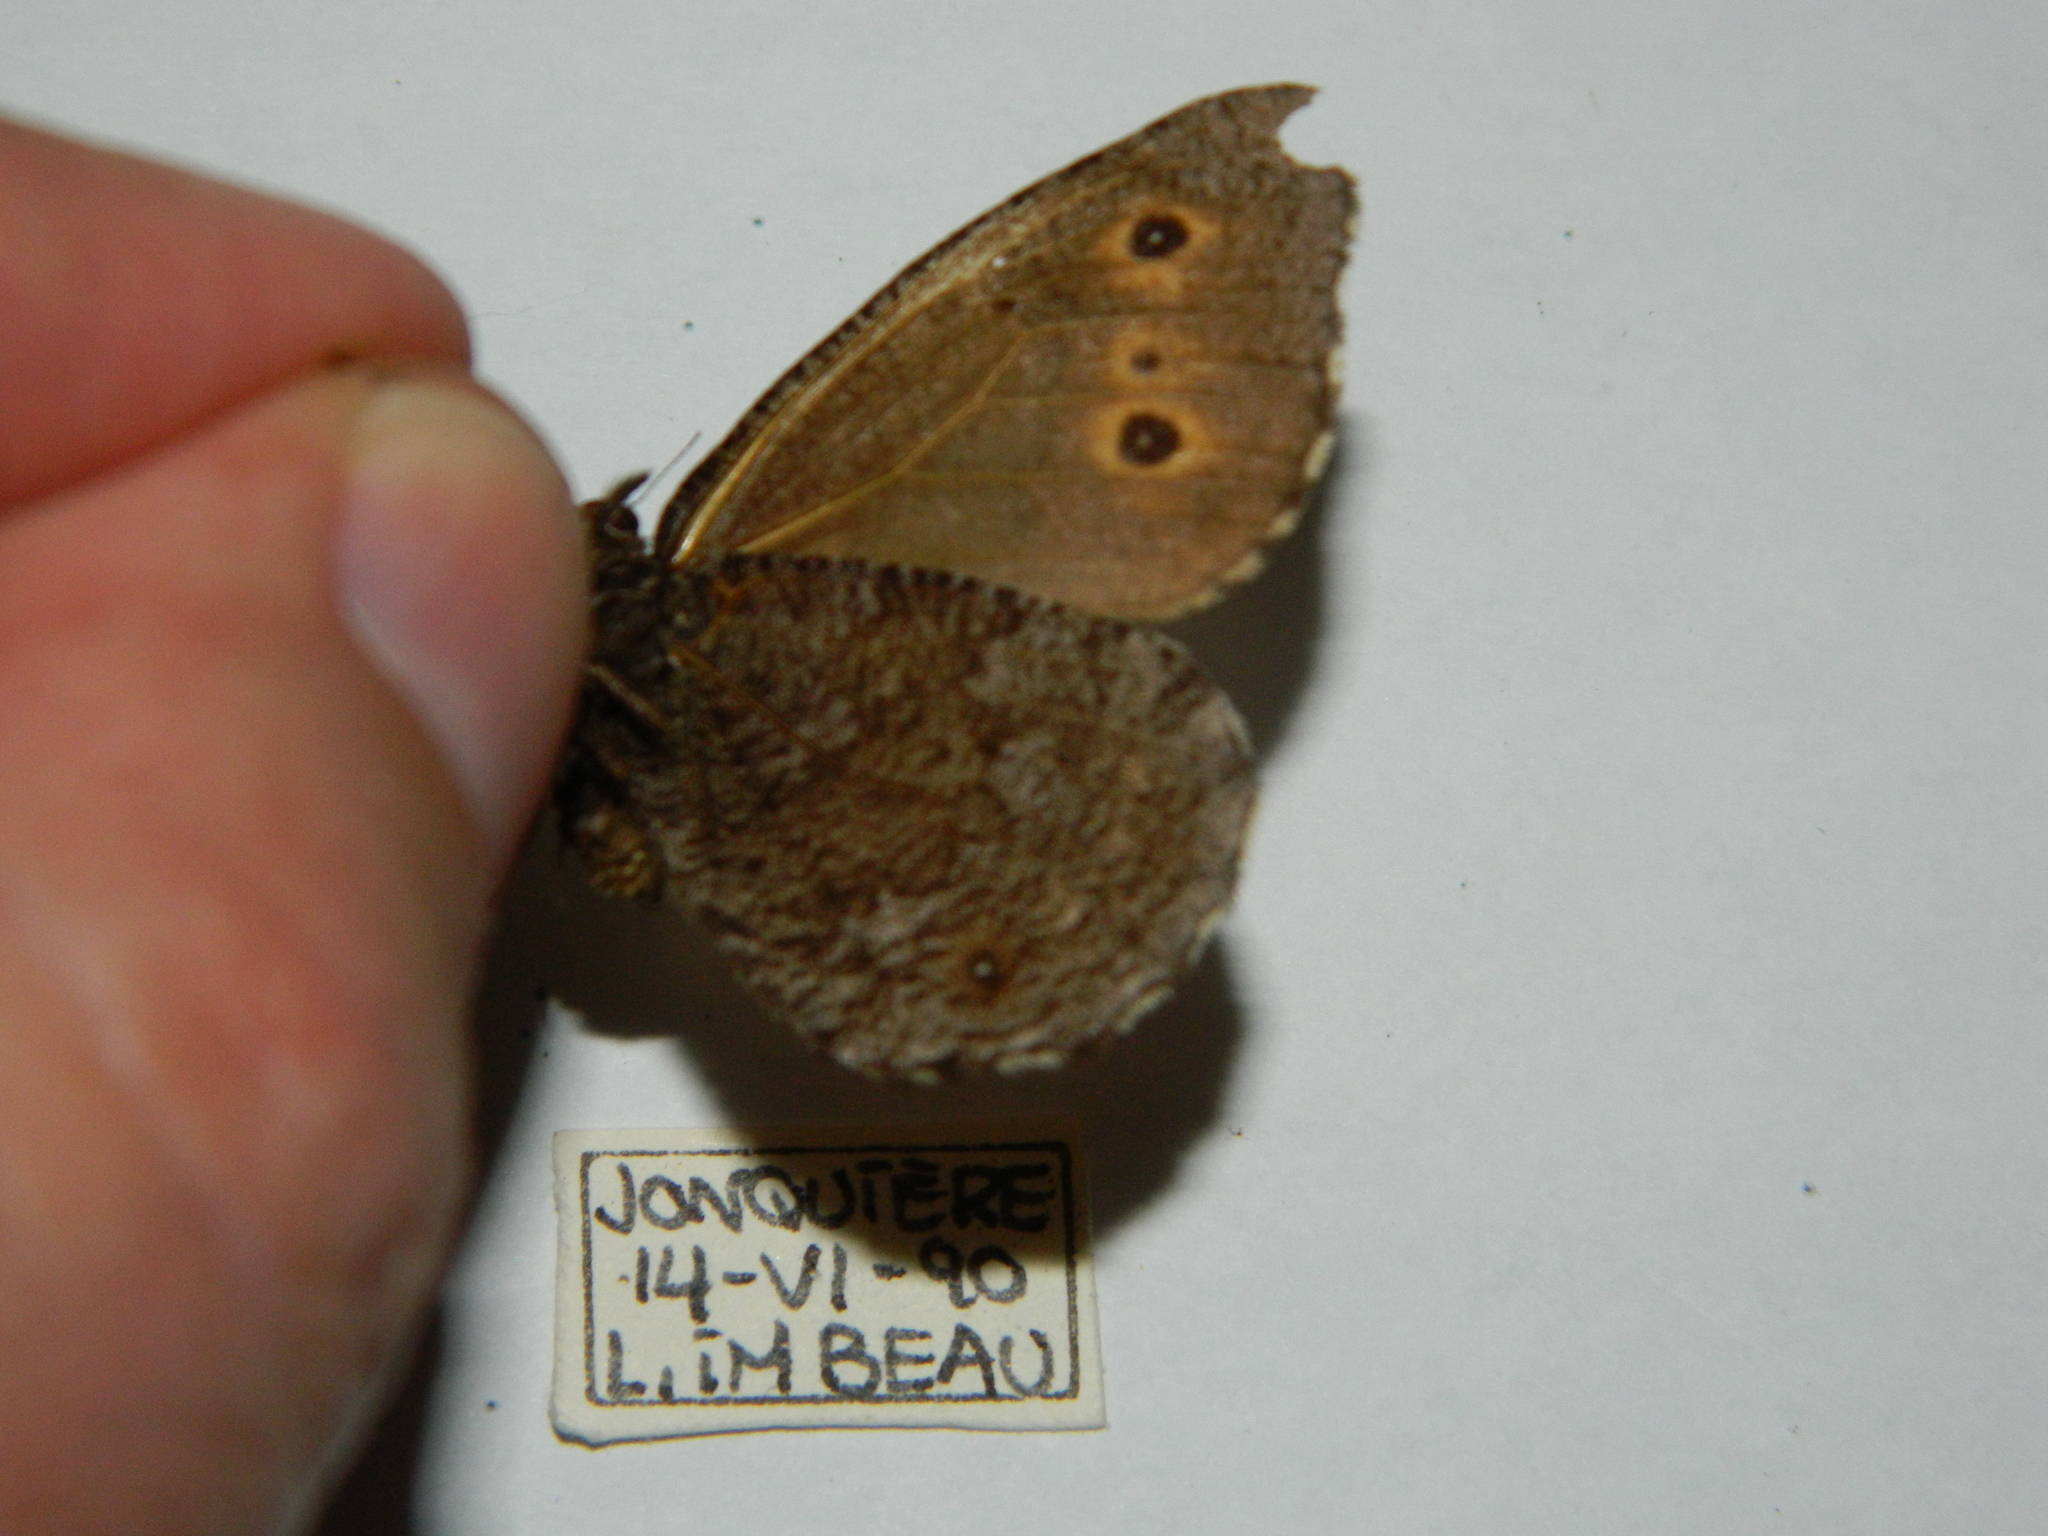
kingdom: Animalia
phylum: Arthropoda
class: Insecta
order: Lepidoptera
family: Nymphalidae
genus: Oeneis
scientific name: Oeneis jutta
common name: Baltic grayling
